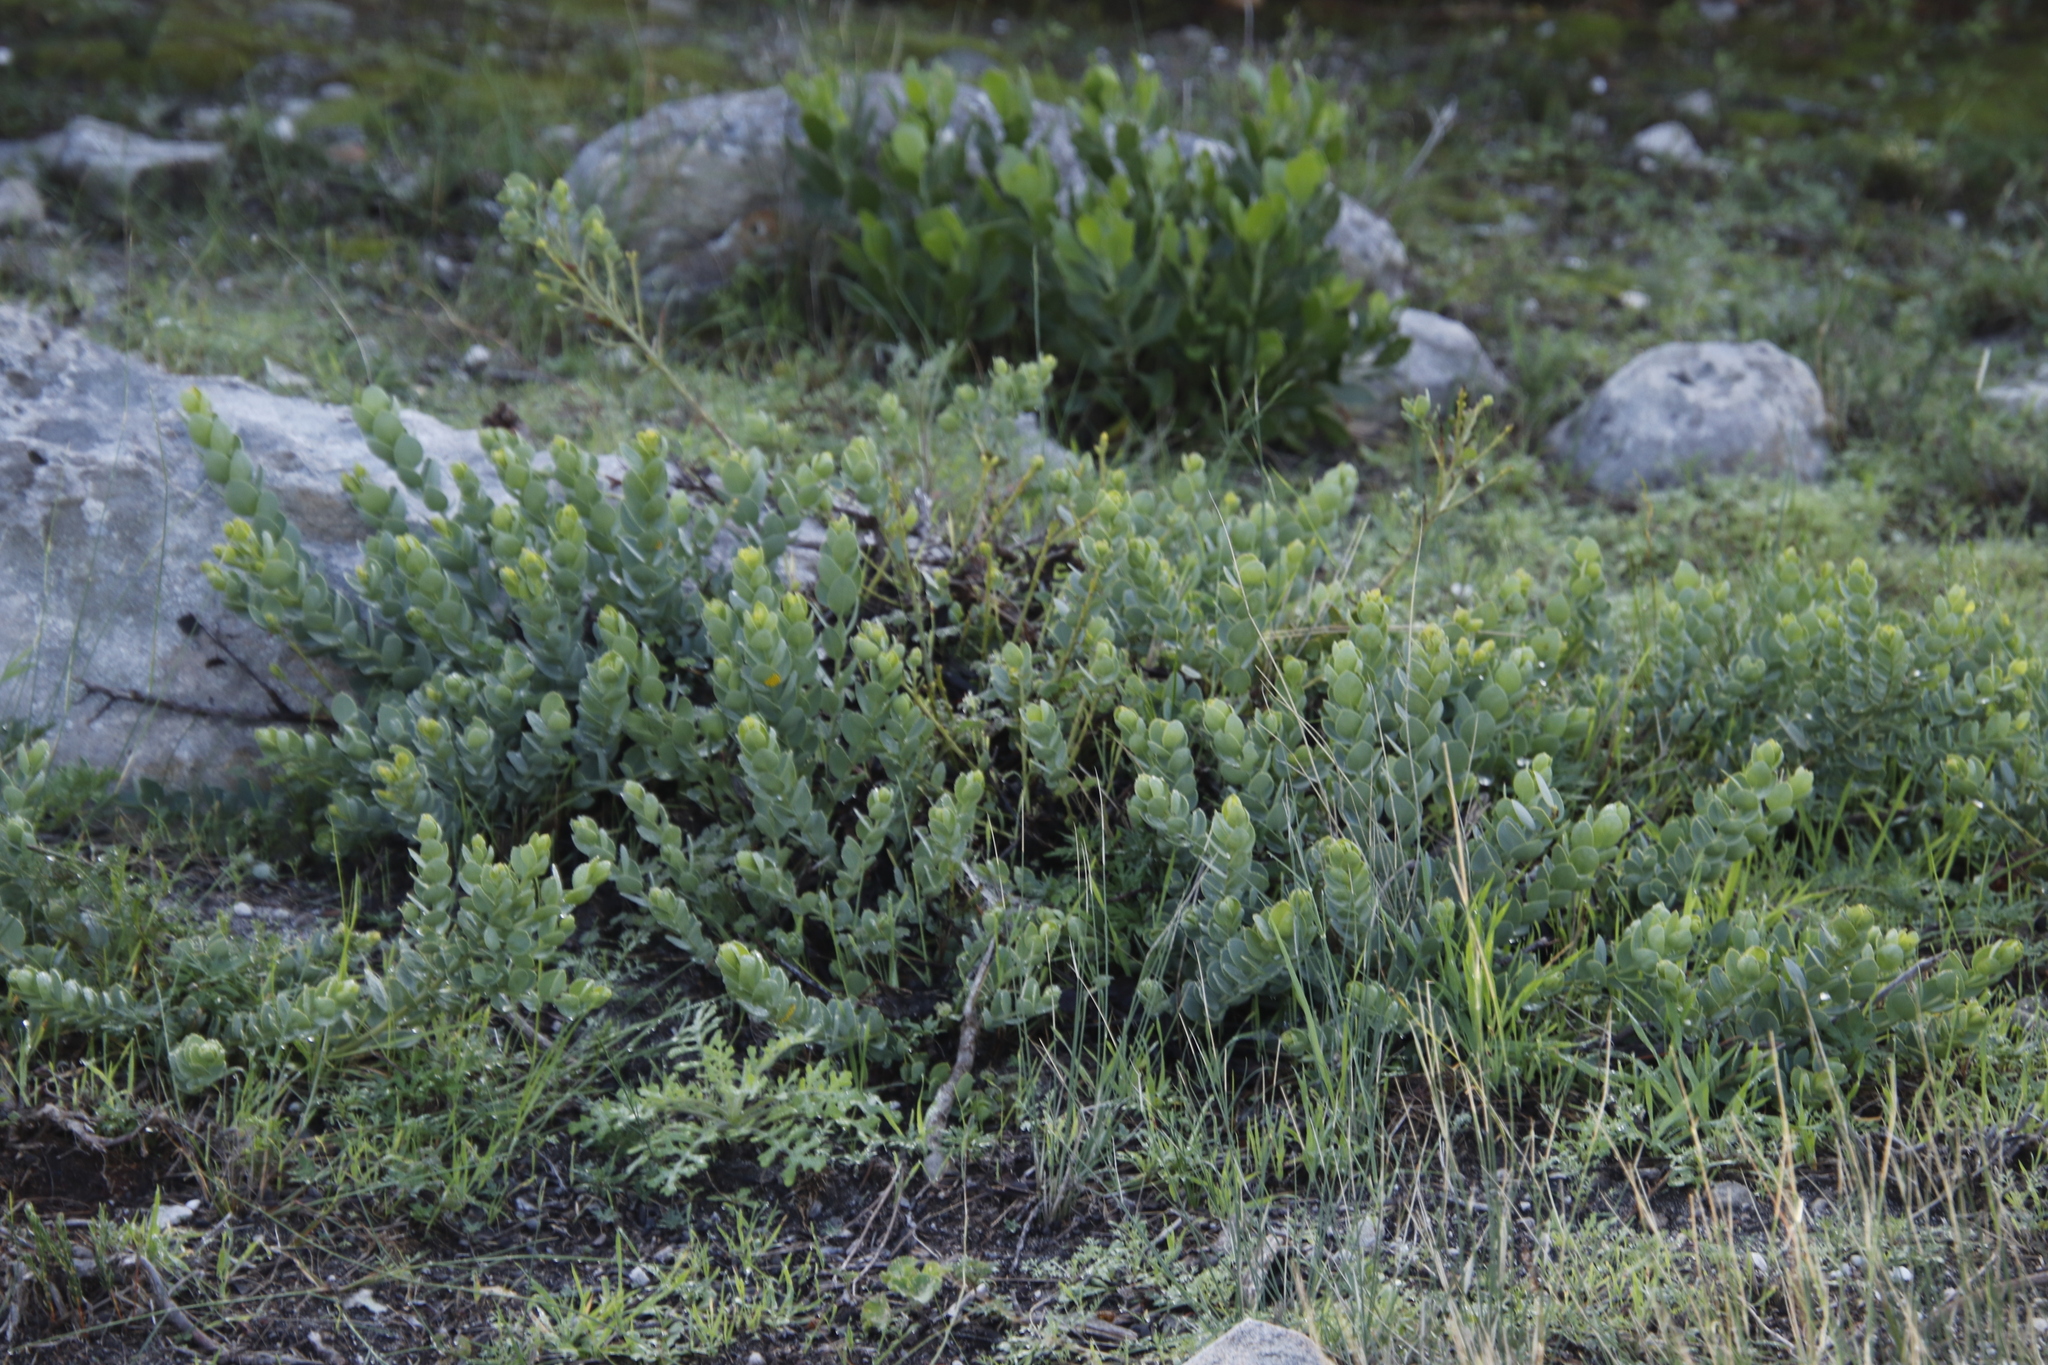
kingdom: Plantae
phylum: Tracheophyta
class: Magnoliopsida
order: Santalales
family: Santalaceae
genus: Osyris
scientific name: Osyris compressa
